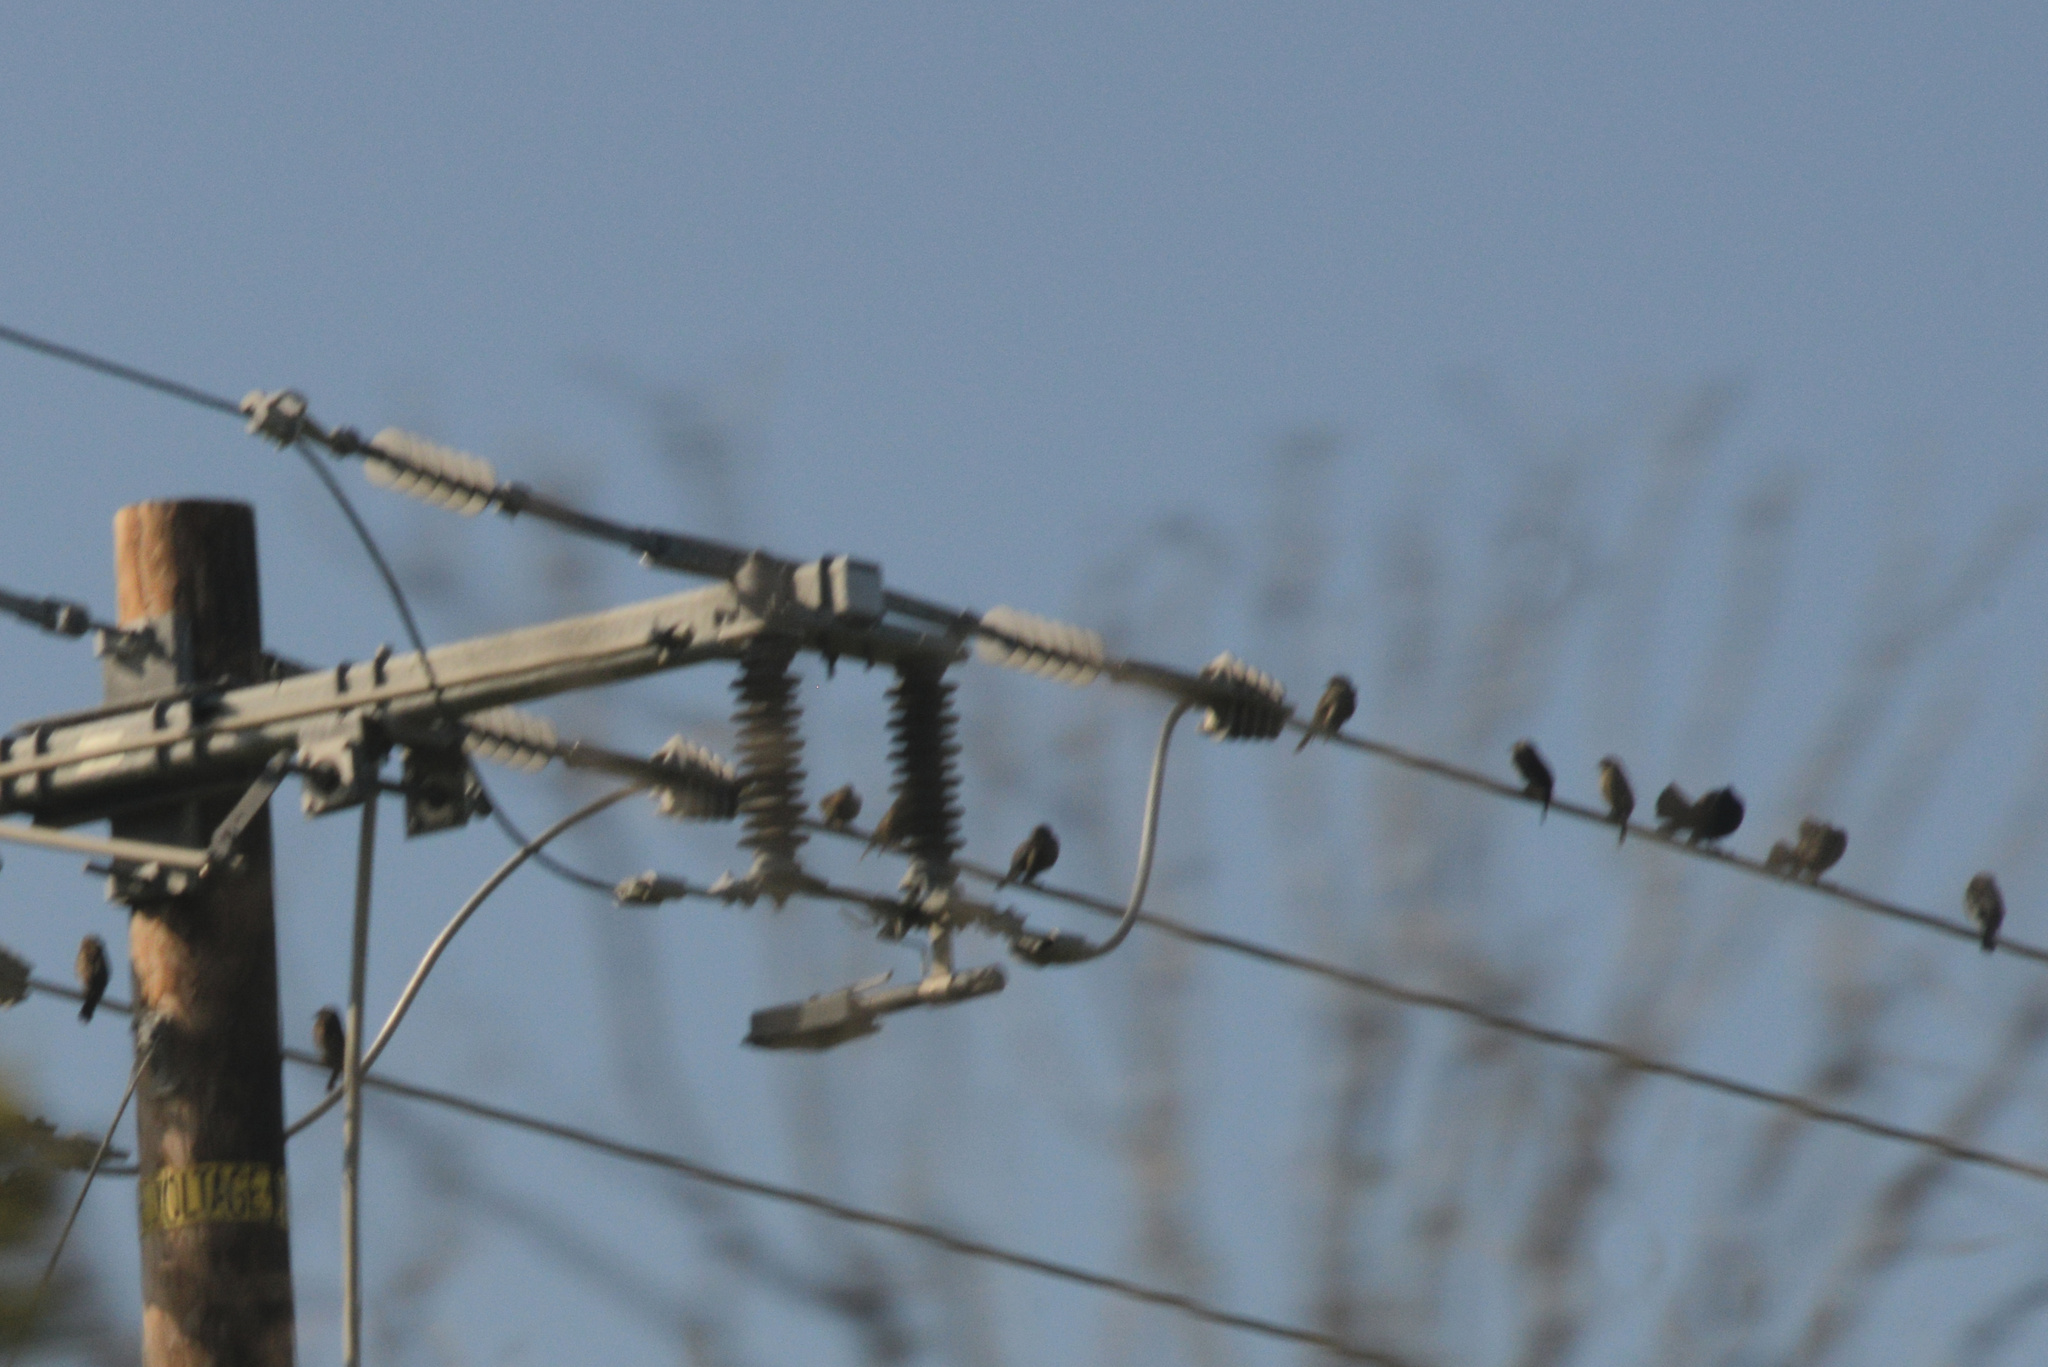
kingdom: Animalia
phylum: Chordata
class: Aves
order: Passeriformes
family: Icteridae
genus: Euphagus
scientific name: Euphagus cyanocephalus
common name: Brewer's blackbird
